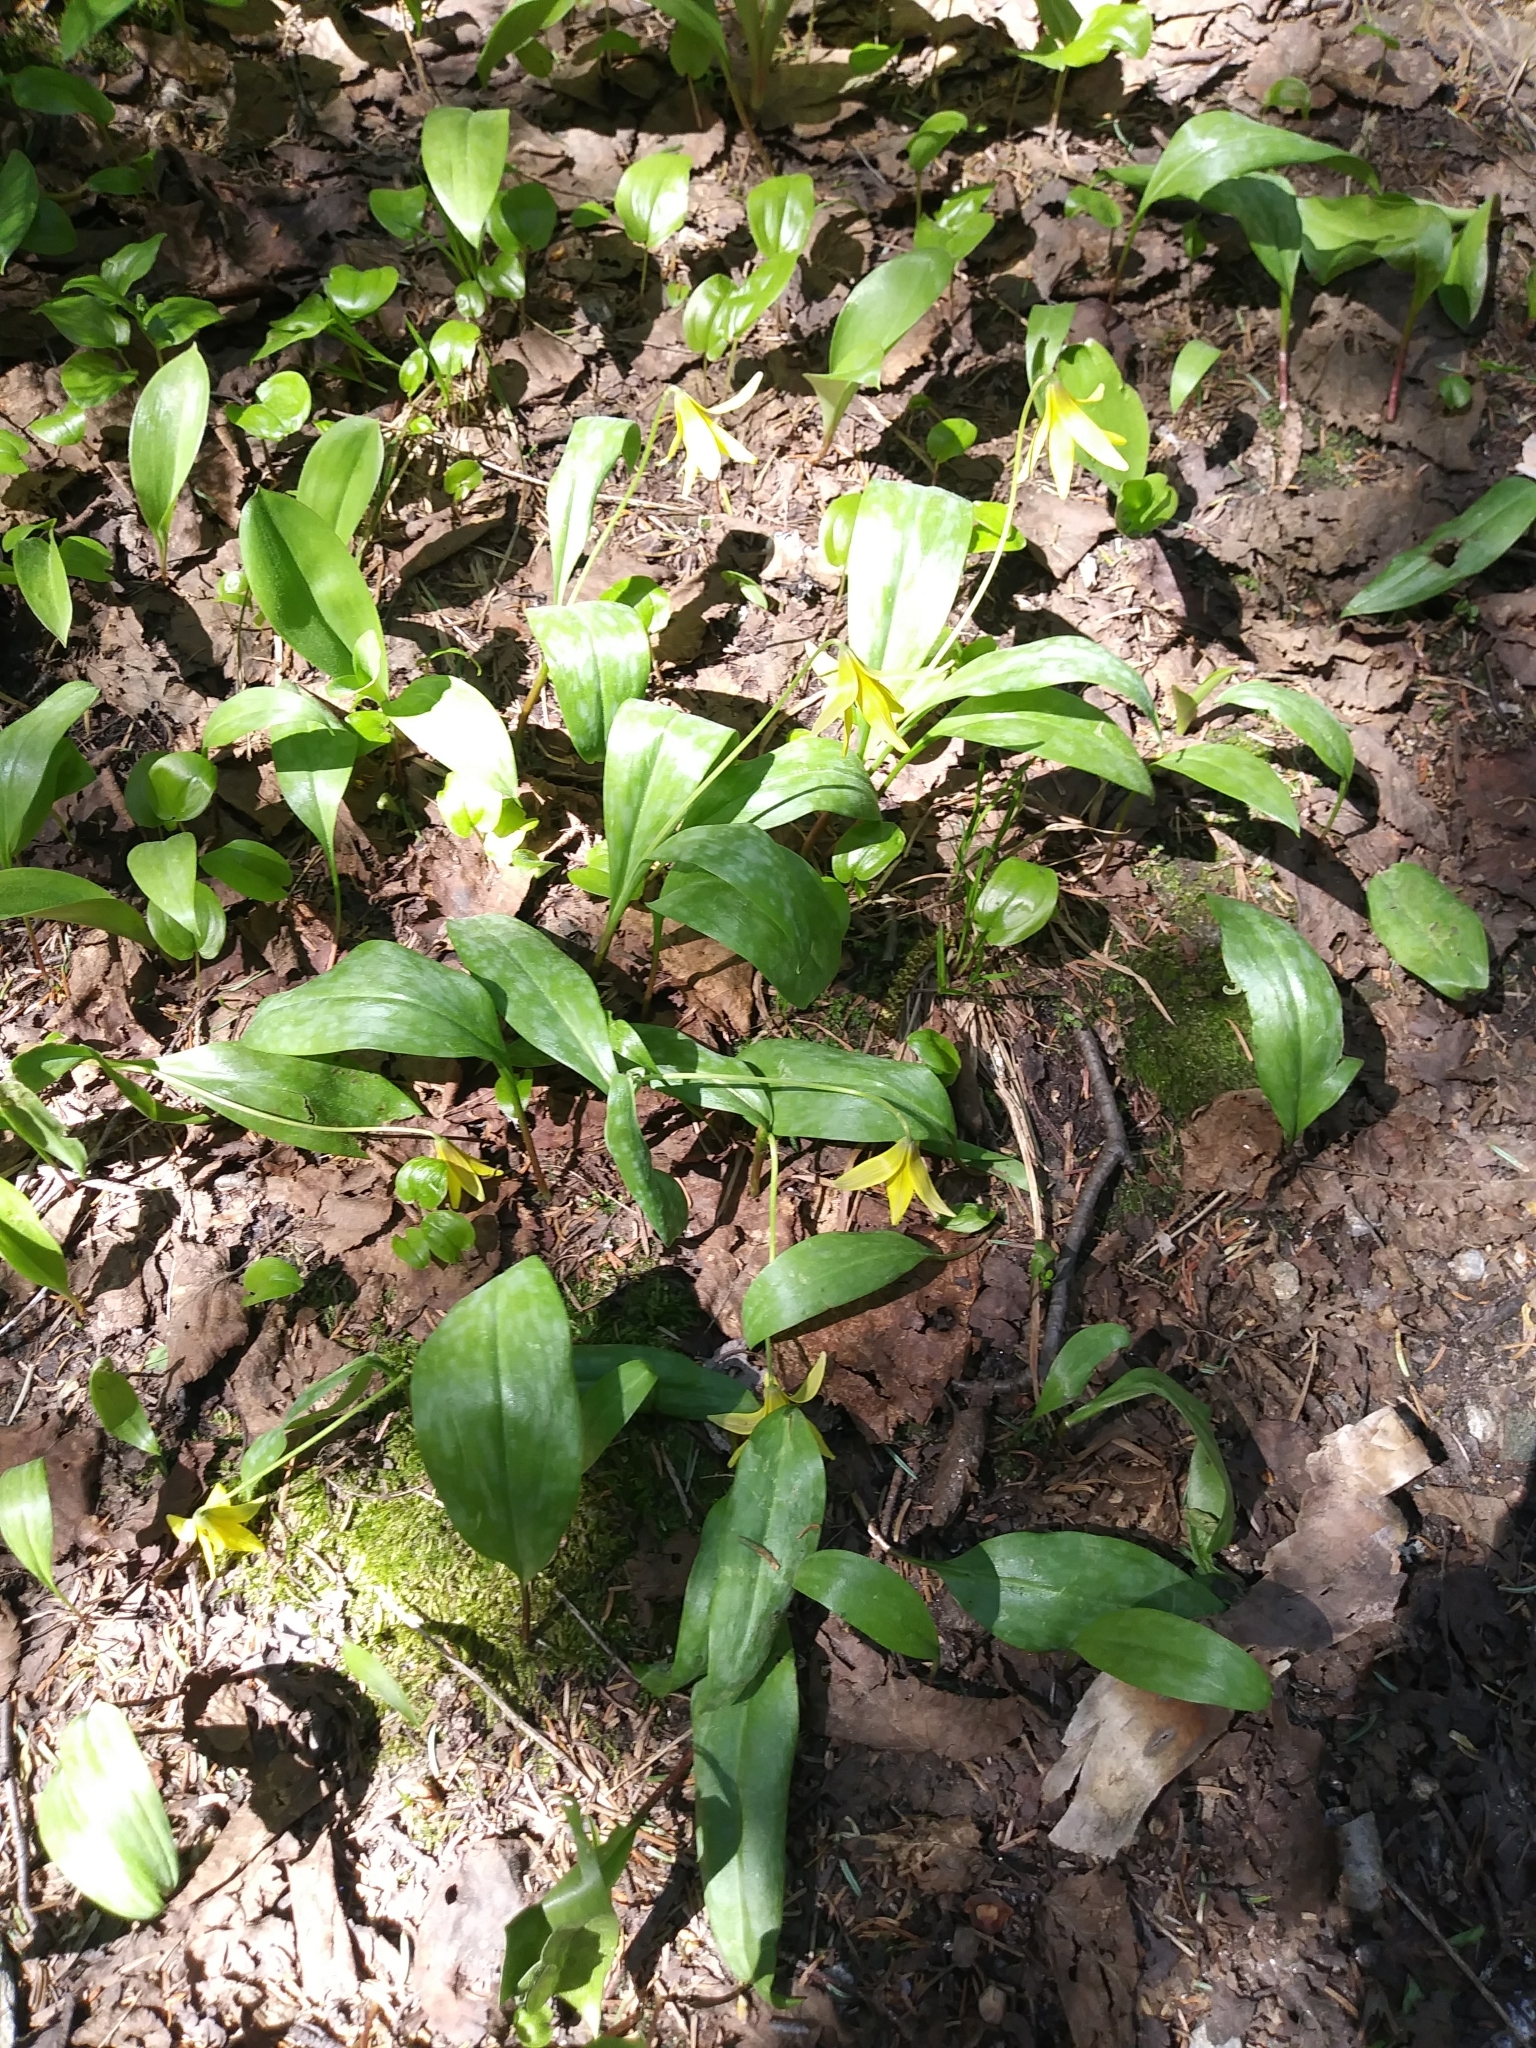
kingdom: Plantae
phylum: Tracheophyta
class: Liliopsida
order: Liliales
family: Liliaceae
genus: Erythronium
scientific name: Erythronium americanum
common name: Yellow adder's-tongue
